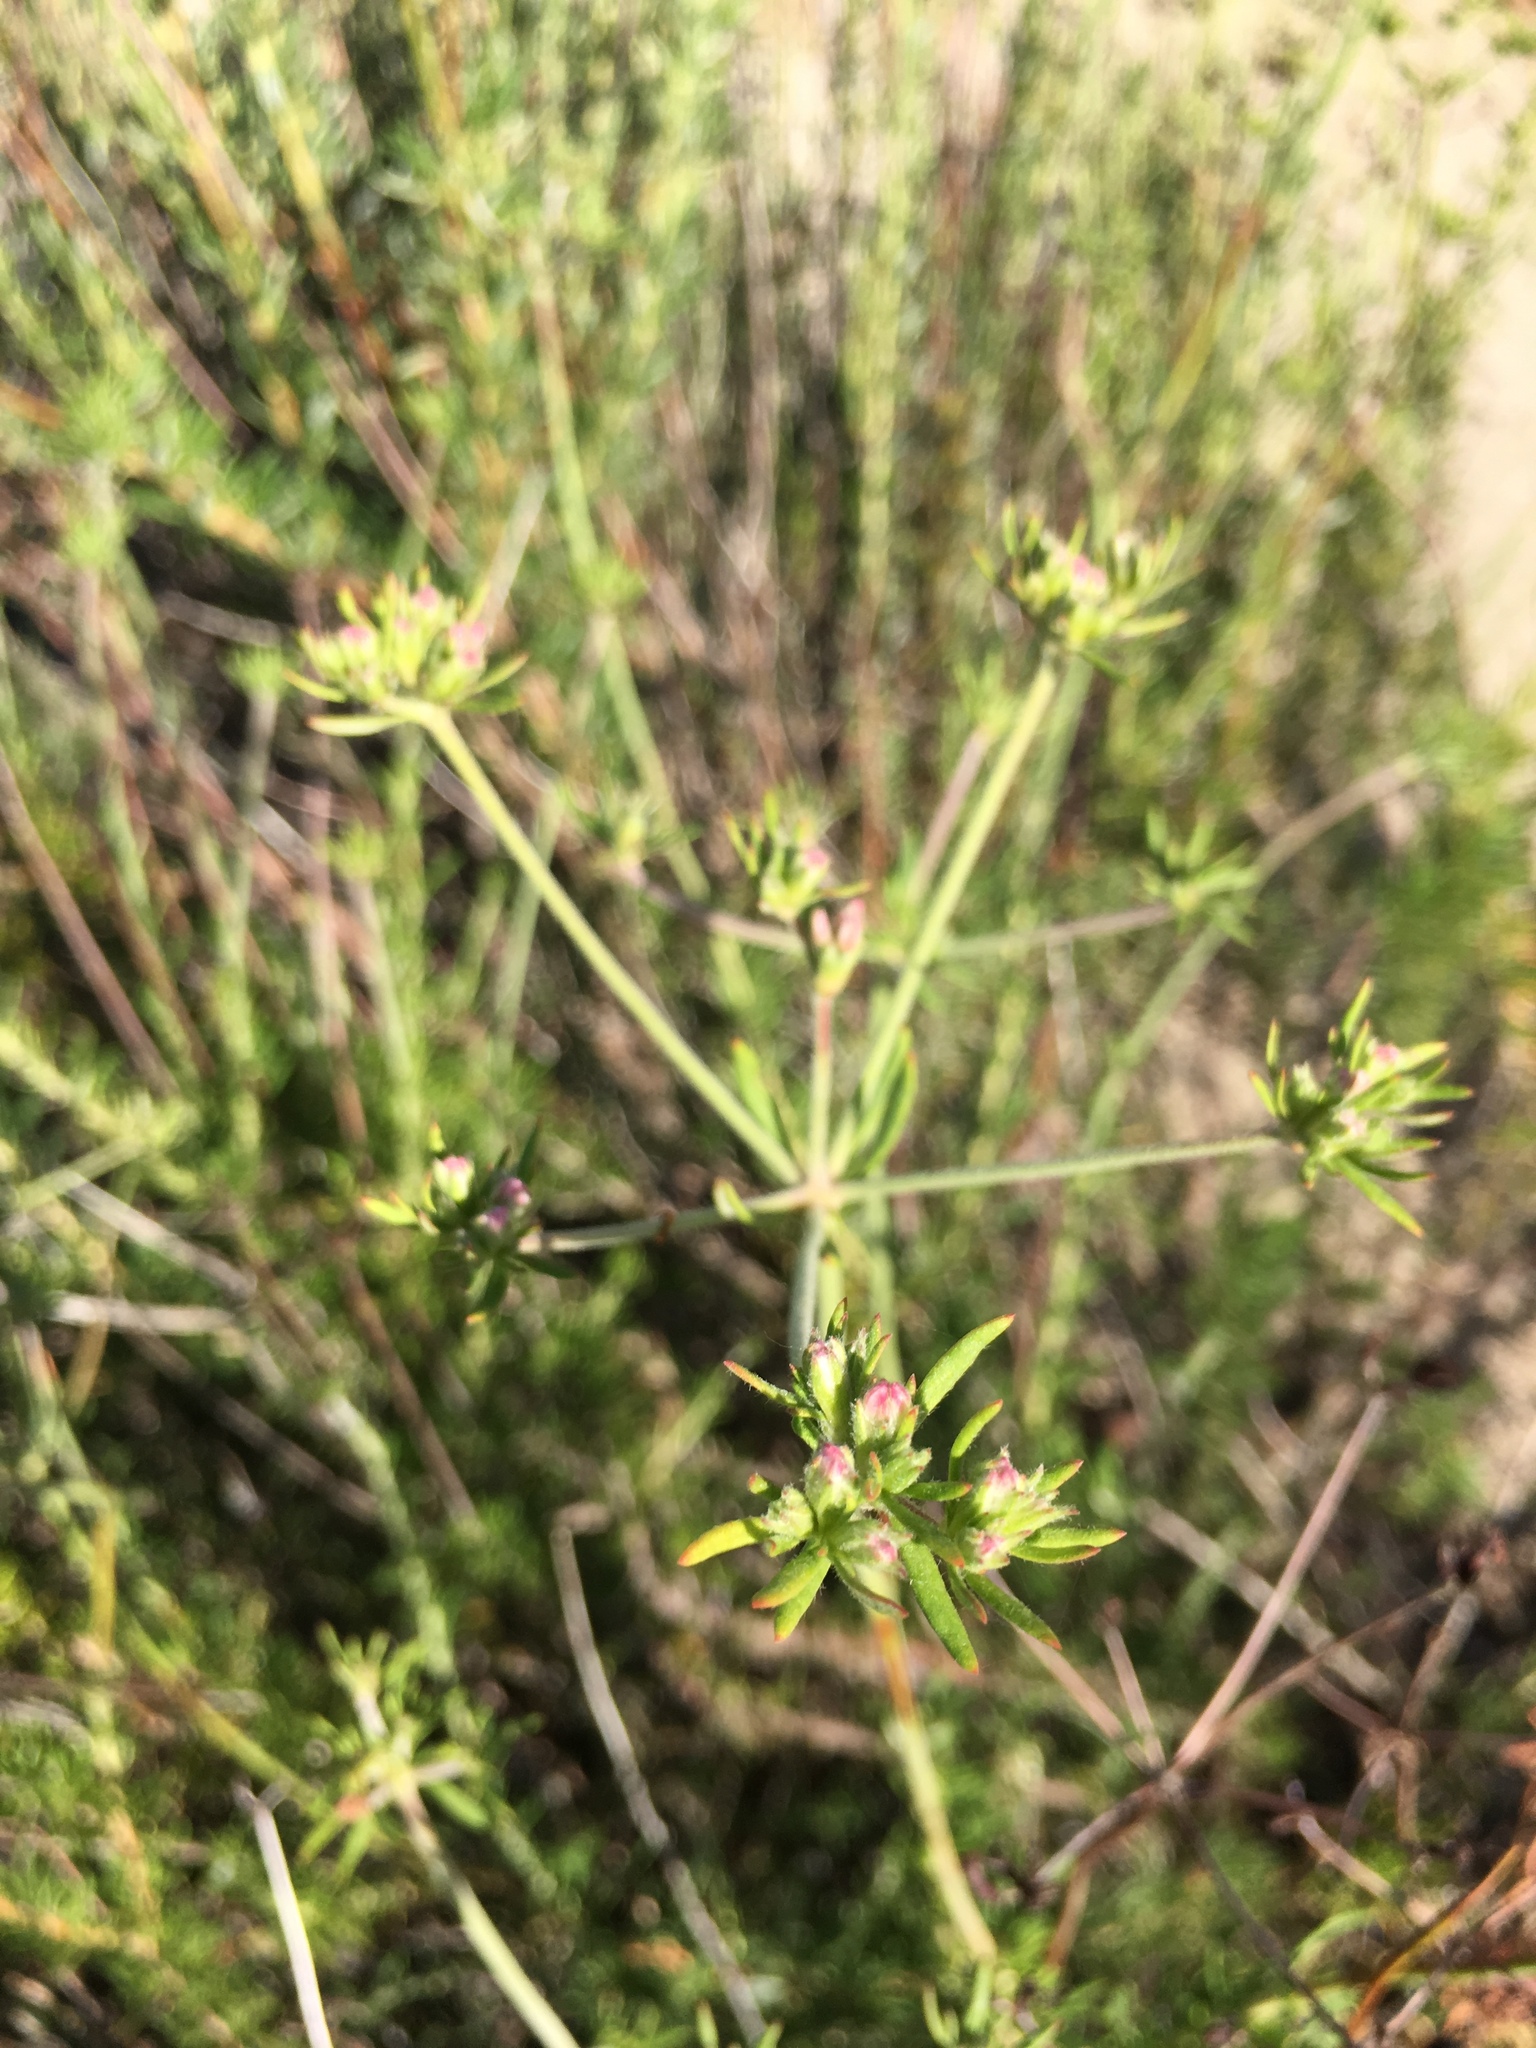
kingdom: Plantae
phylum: Tracheophyta
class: Magnoliopsida
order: Caryophyllales
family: Polygonaceae
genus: Eriogonum
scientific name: Eriogonum fasciculatum
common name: California wild buckwheat
